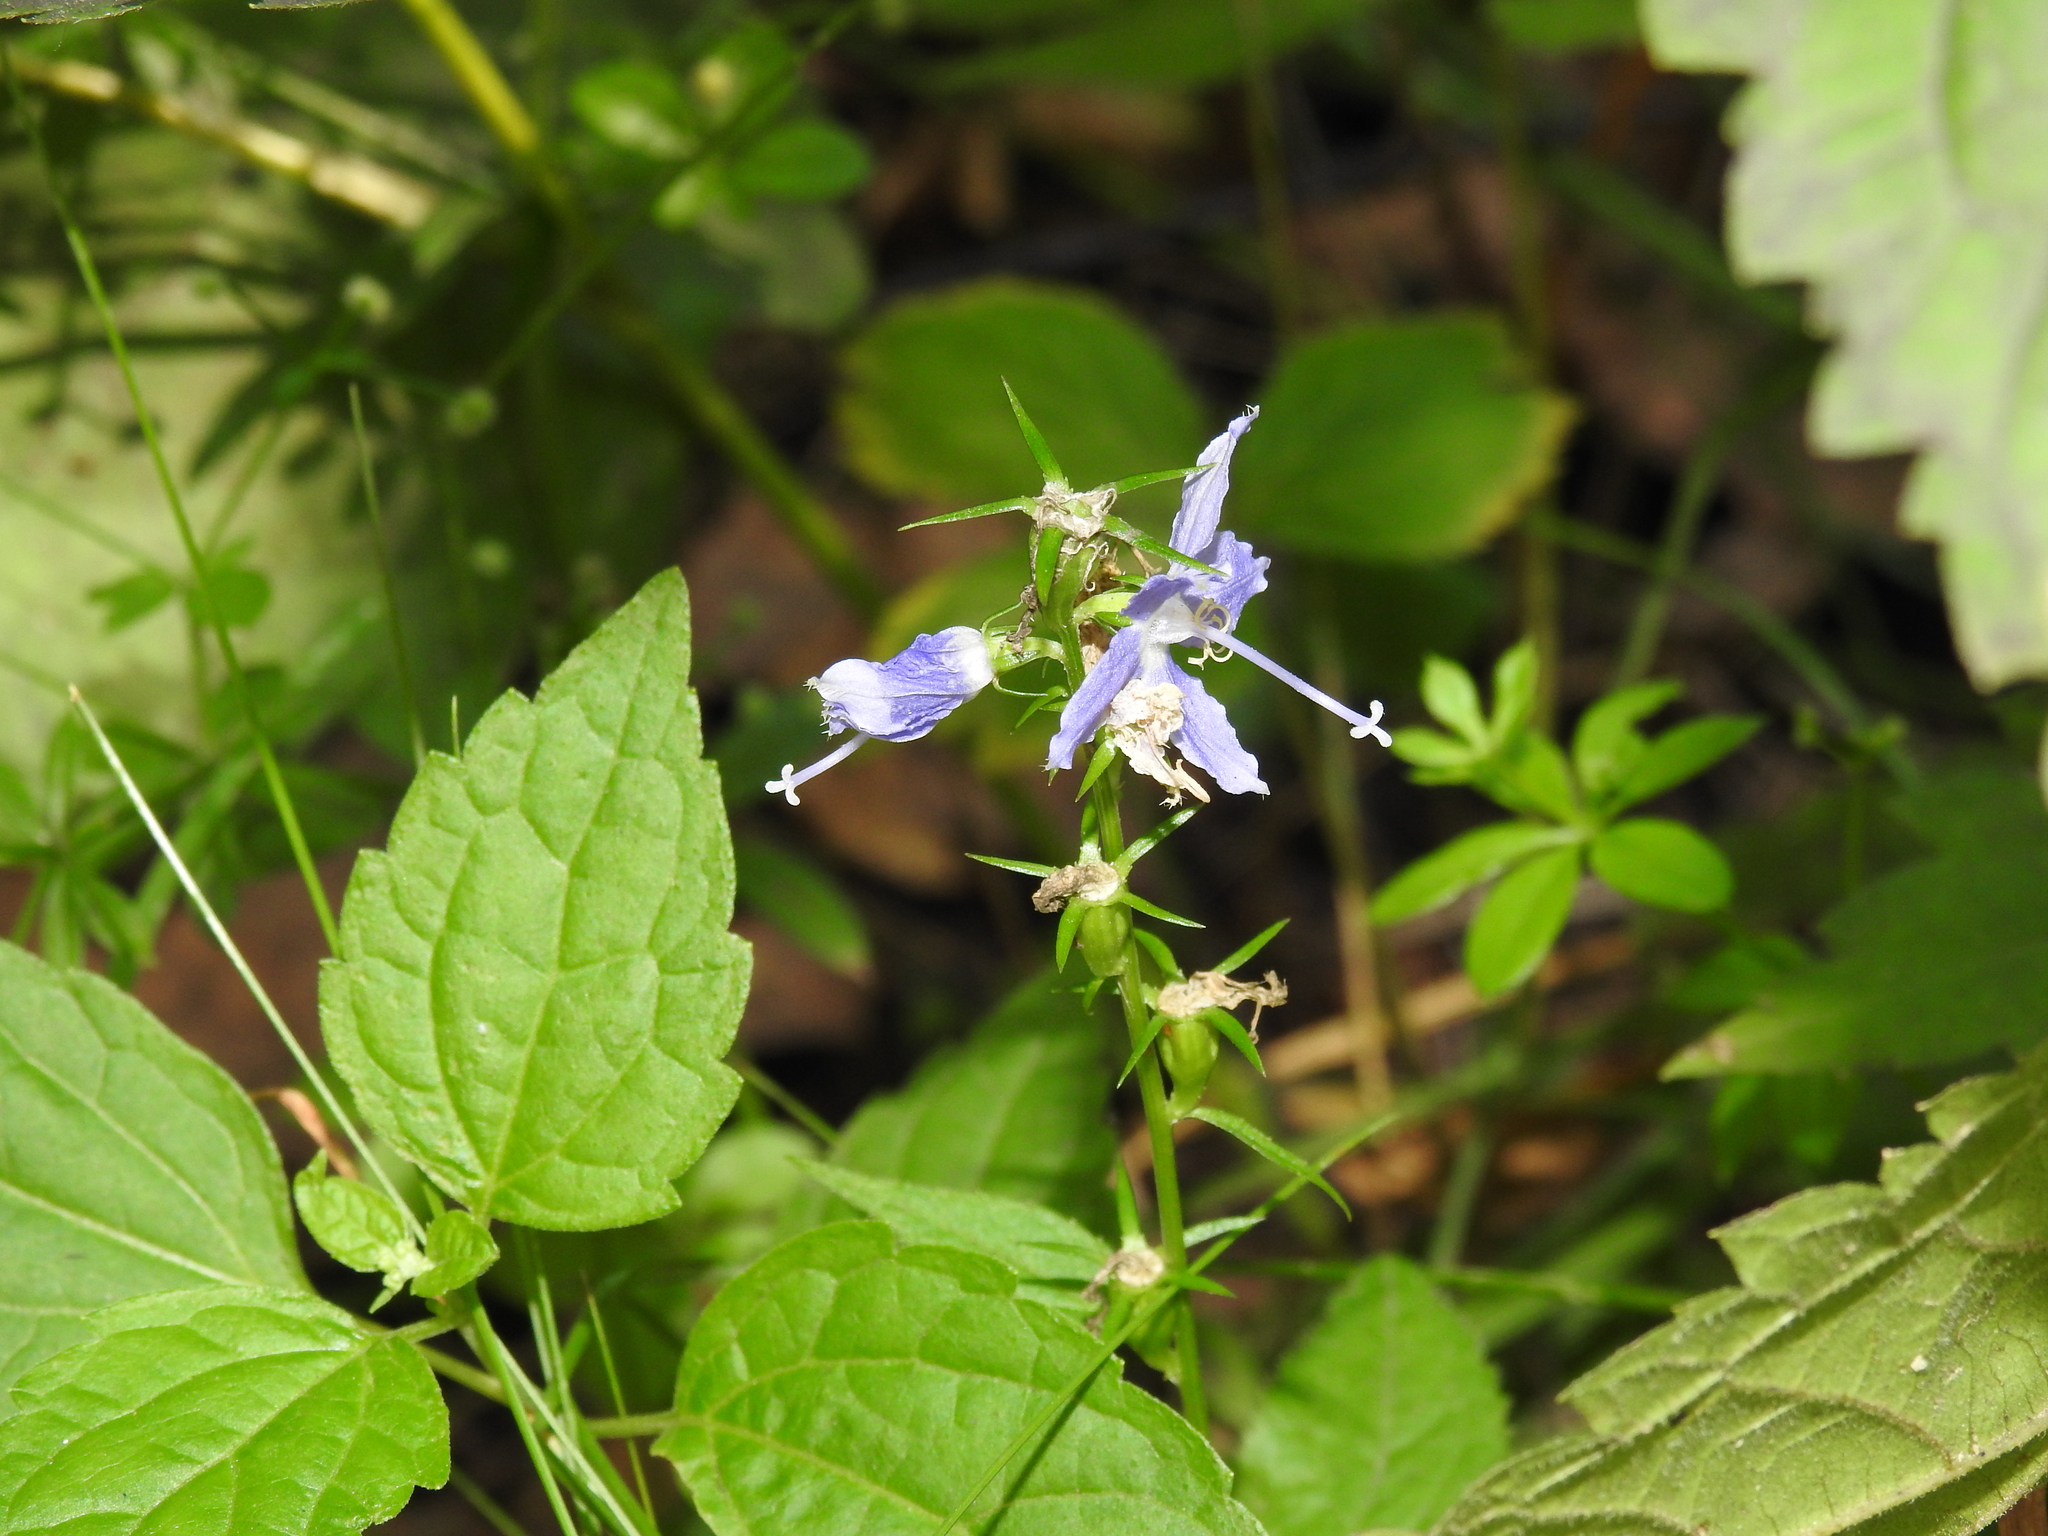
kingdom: Plantae
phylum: Tracheophyta
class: Magnoliopsida
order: Asterales
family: Campanulaceae
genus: Campanulastrum
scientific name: Campanulastrum americanum
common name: American bellflower
